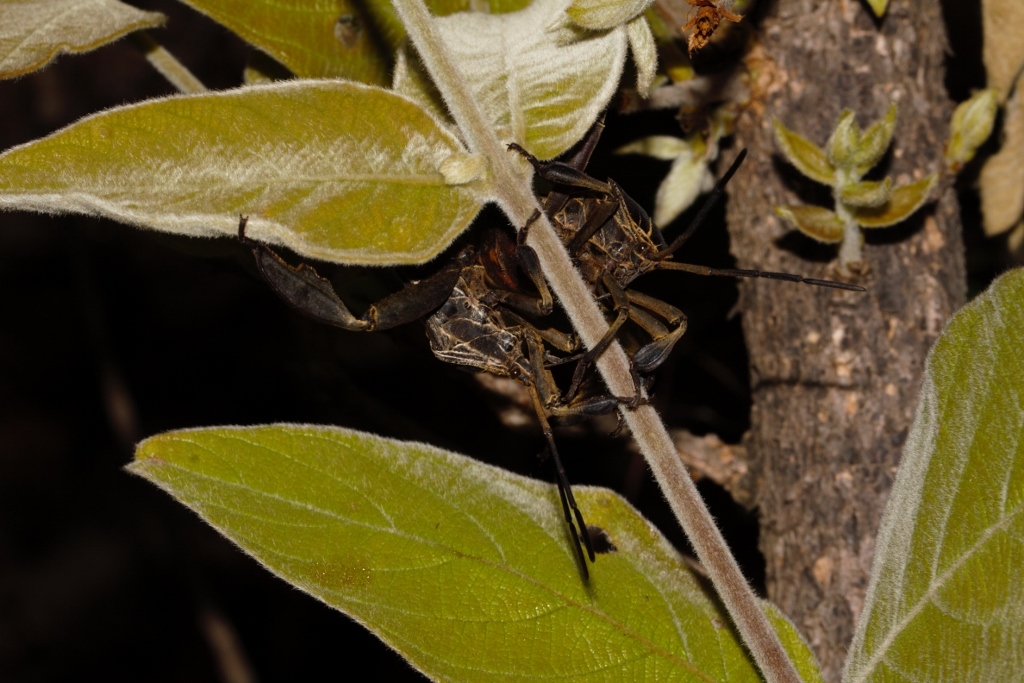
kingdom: Animalia
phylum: Arthropoda
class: Insecta
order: Hemiptera
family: Coreidae
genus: Petascelis
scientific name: Petascelis remipes
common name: Giant twig wilter
